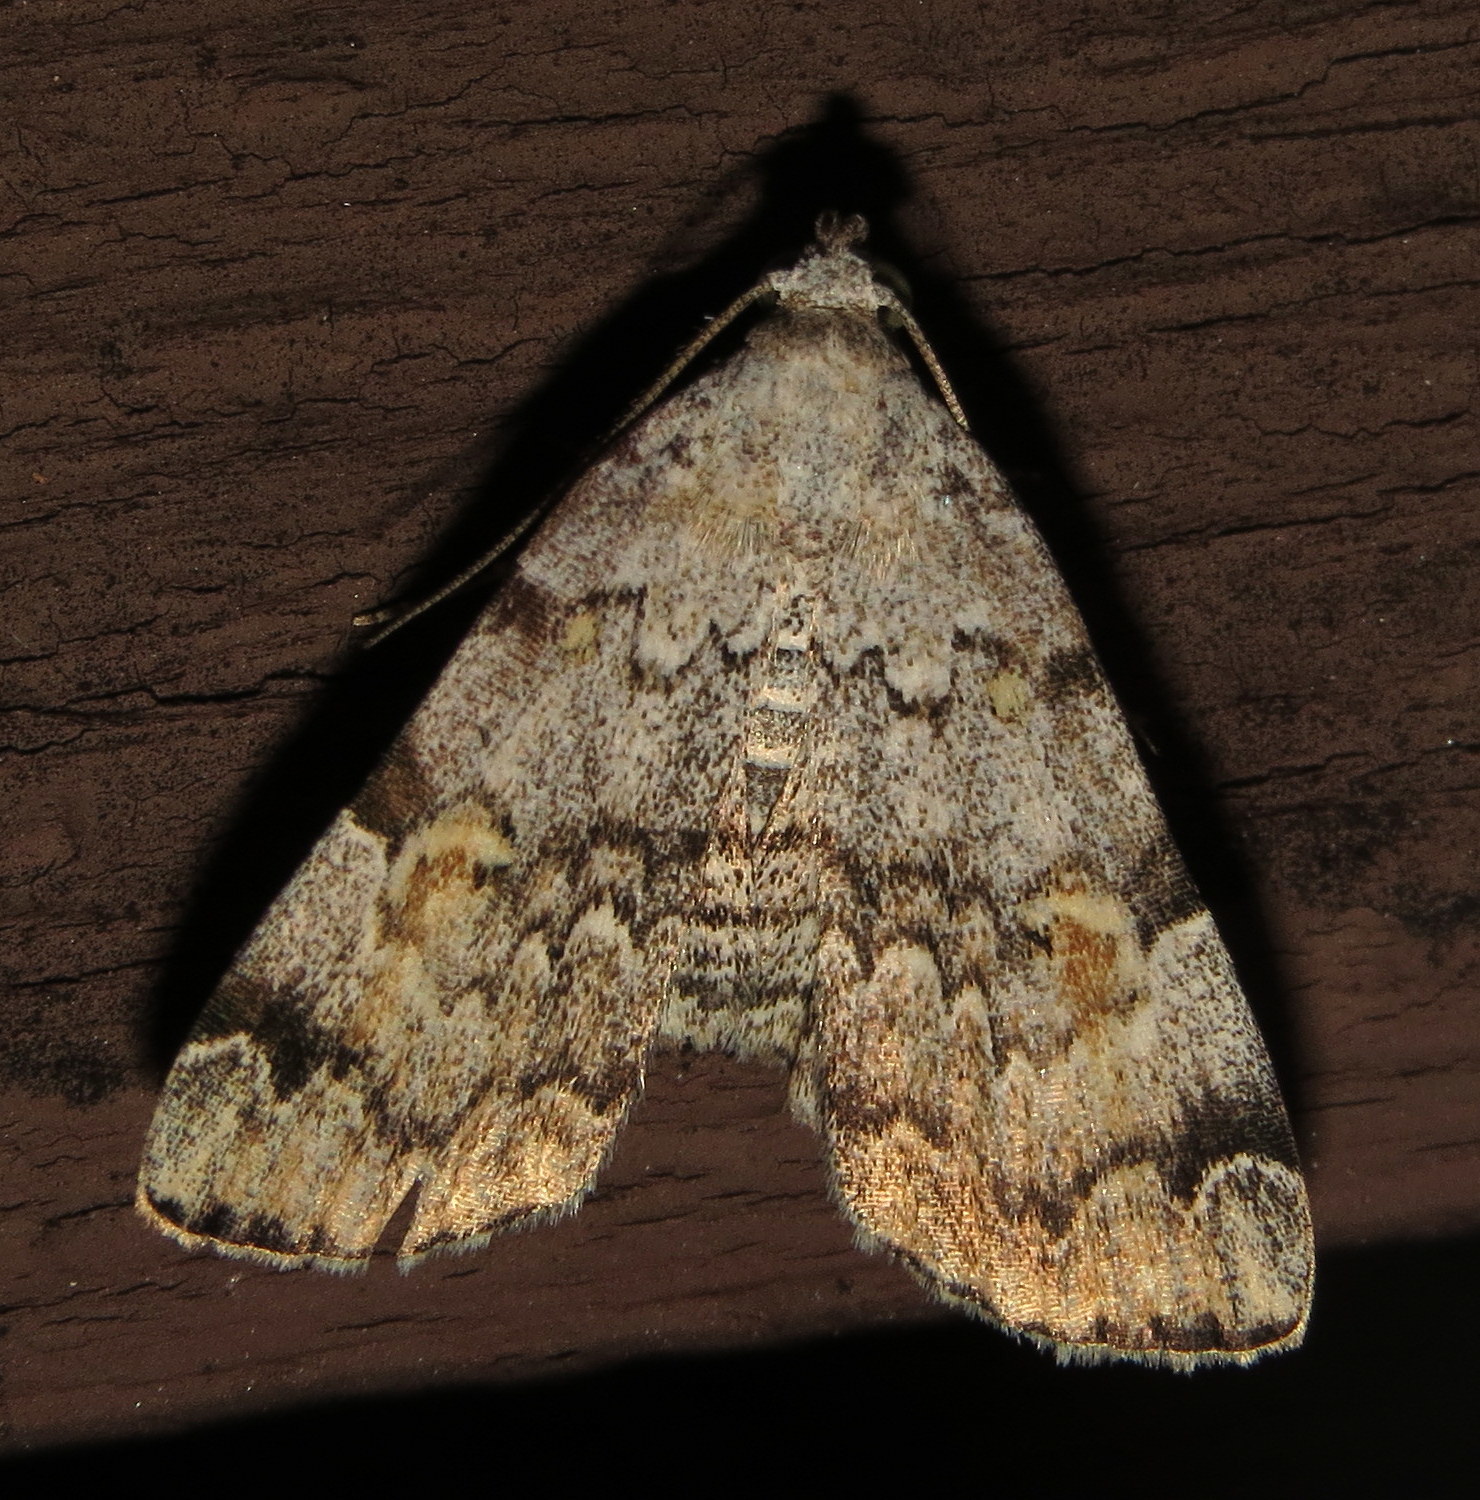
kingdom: Animalia
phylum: Arthropoda
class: Insecta
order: Lepidoptera
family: Erebidae
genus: Idia
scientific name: Idia americalis
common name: American idia moth
